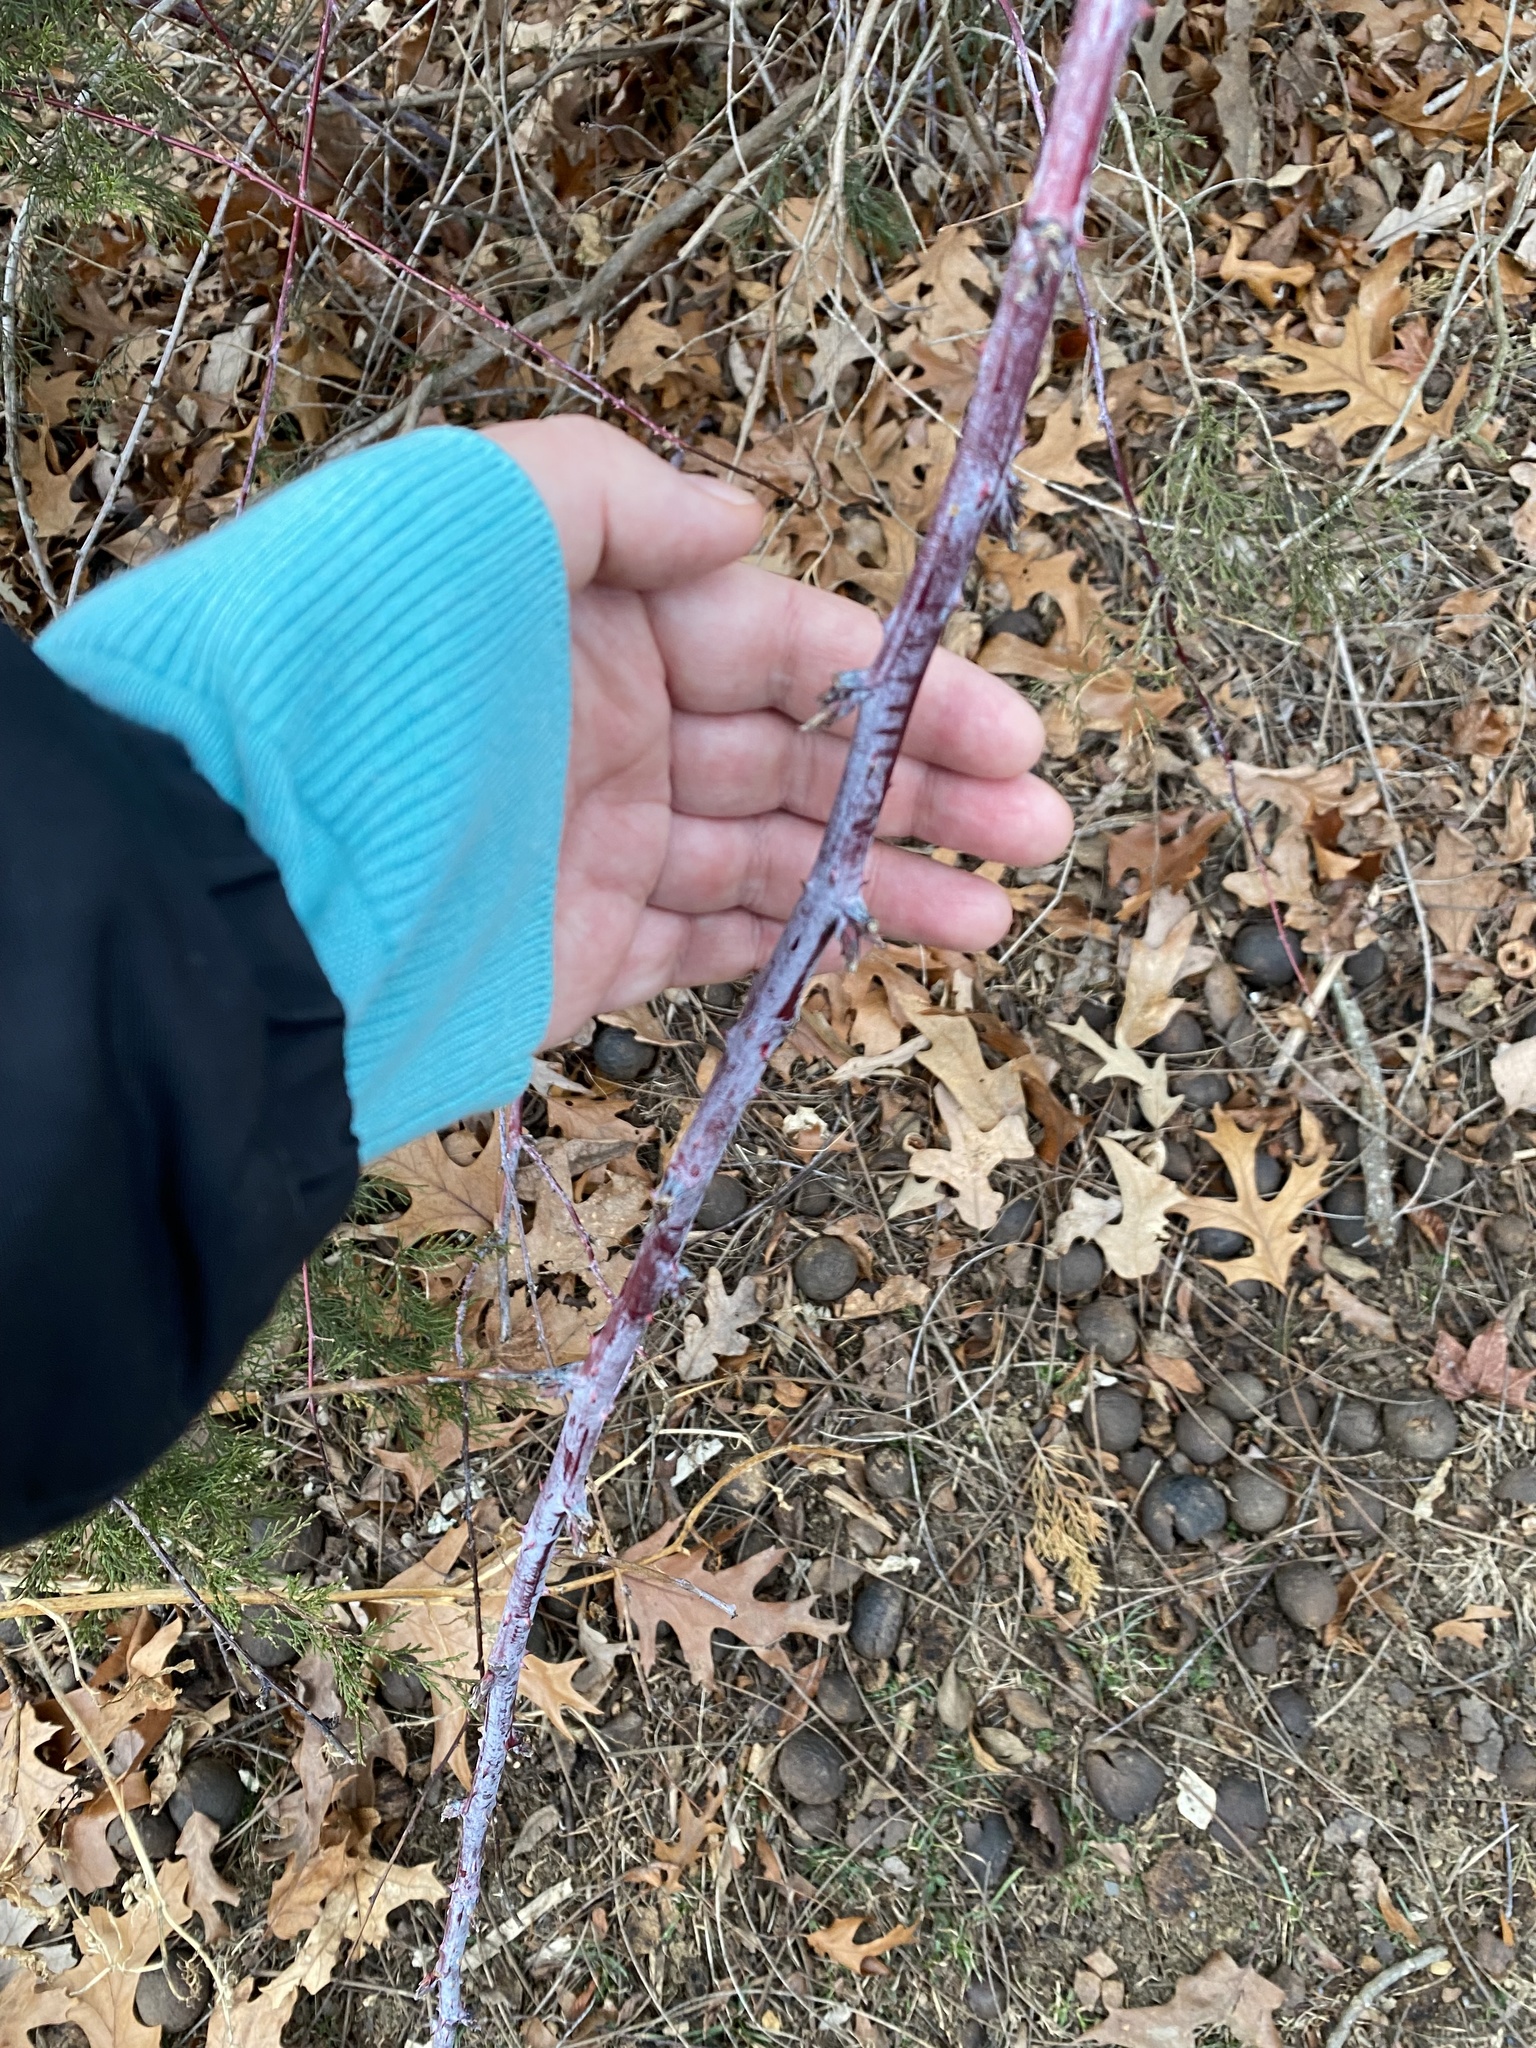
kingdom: Plantae
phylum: Tracheophyta
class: Magnoliopsida
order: Rosales
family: Rosaceae
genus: Rubus
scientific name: Rubus occidentalis
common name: Black raspberry
